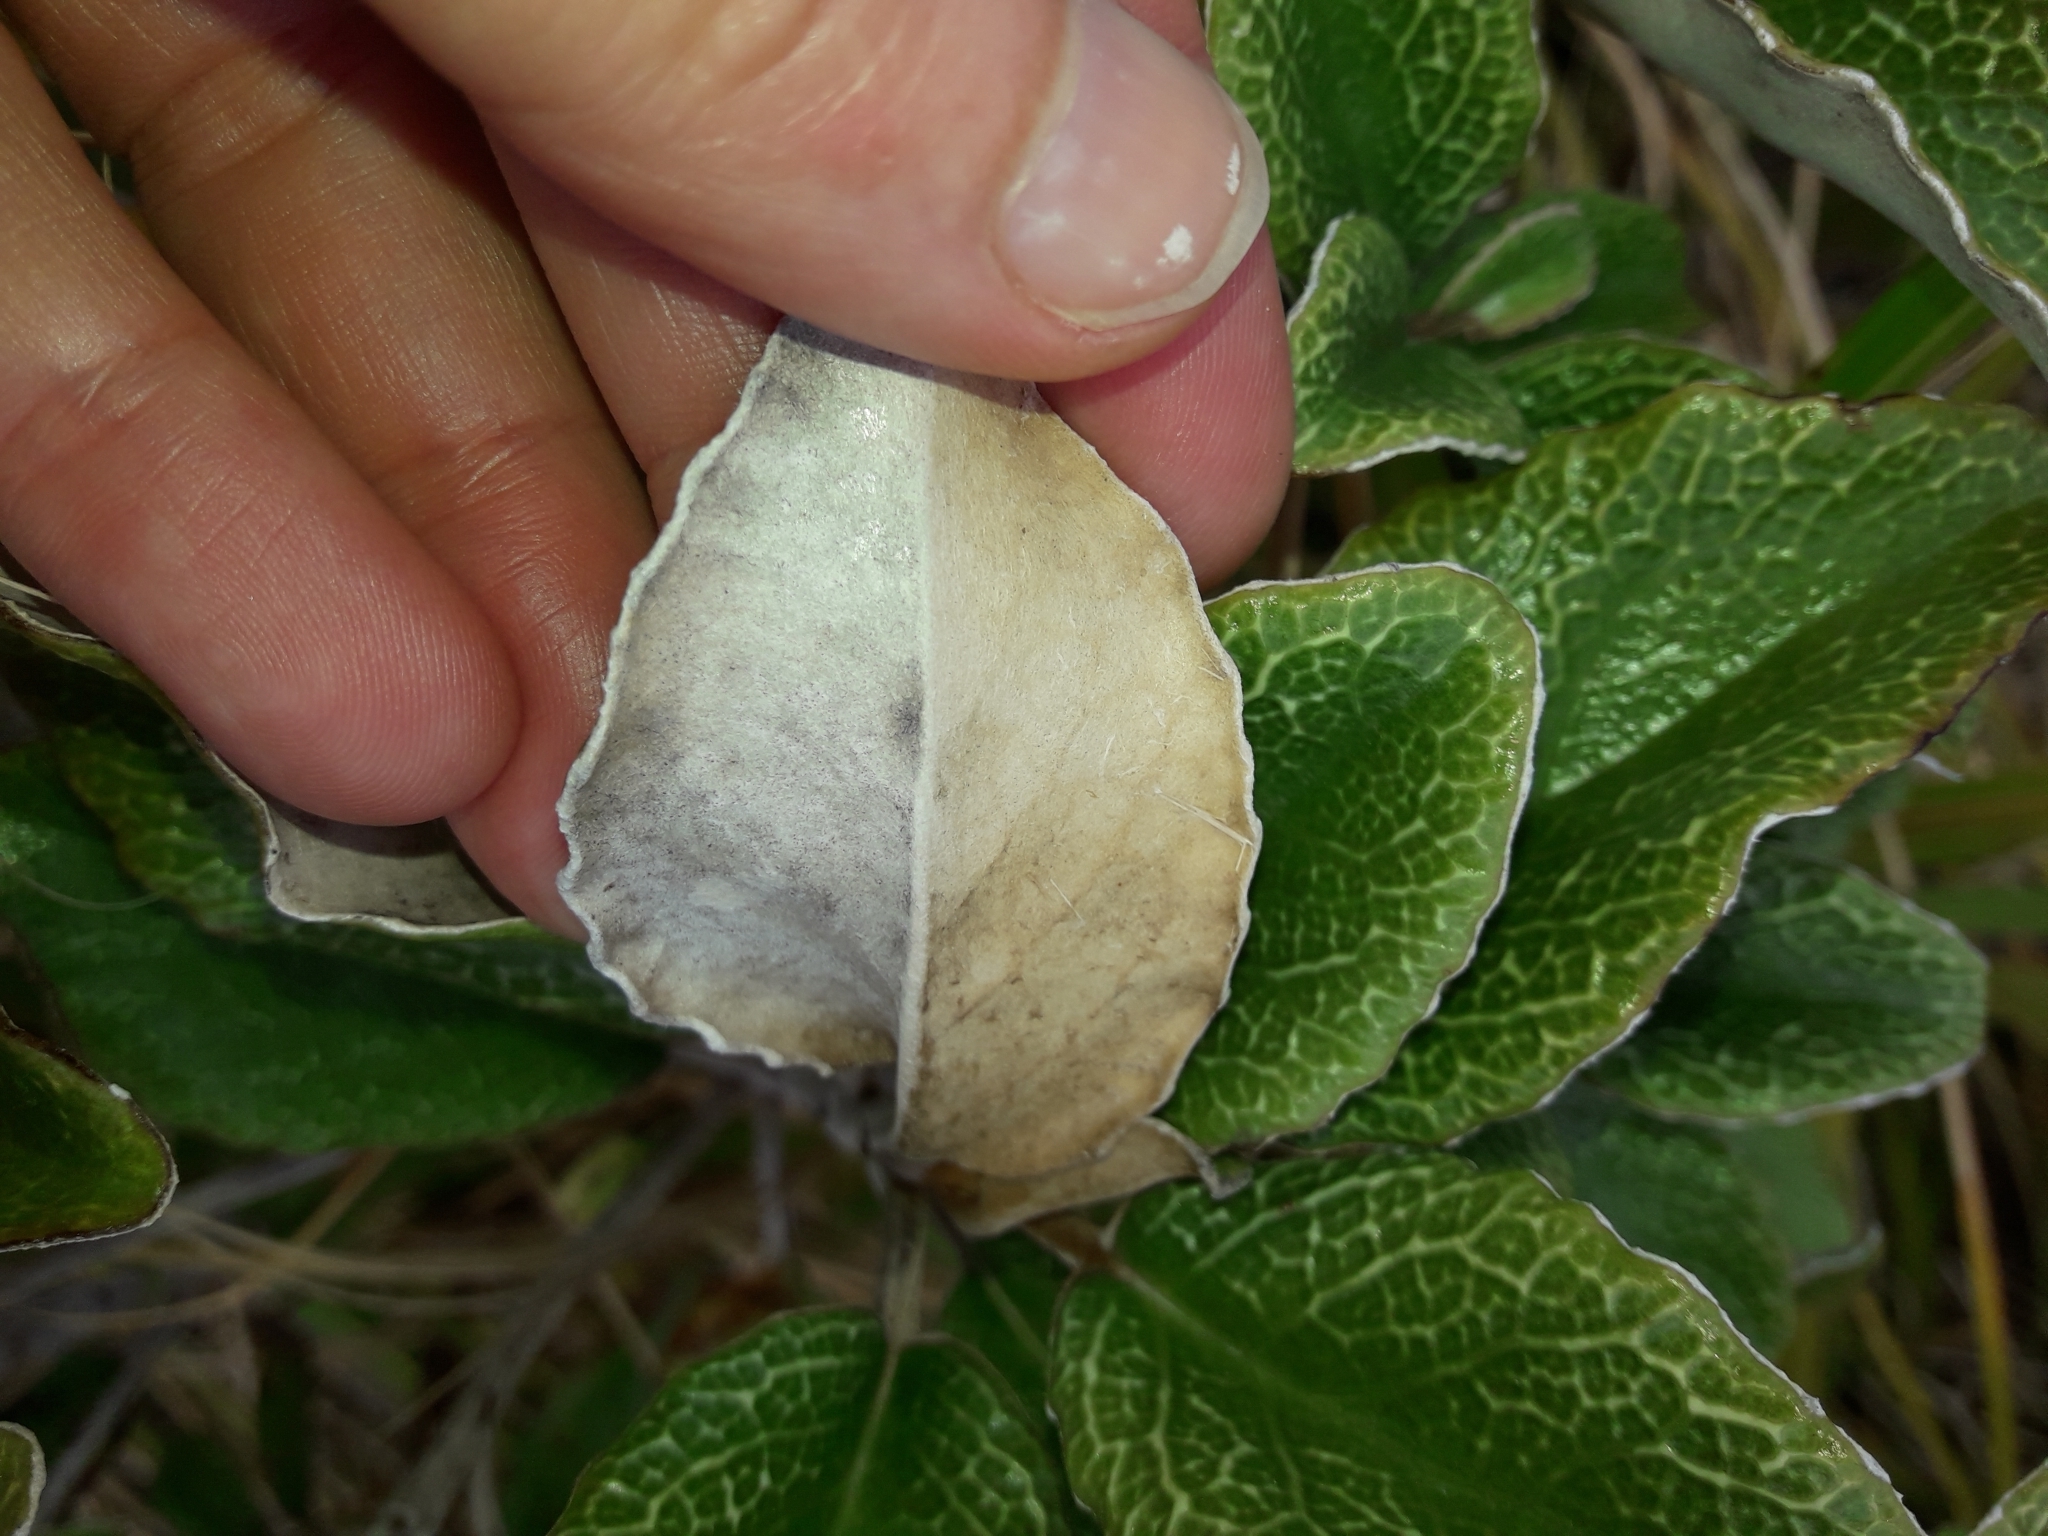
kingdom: Plantae
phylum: Tracheophyta
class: Magnoliopsida
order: Asterales
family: Asteraceae
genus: Brachyglottis
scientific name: Brachyglottis elaeagnifolia
